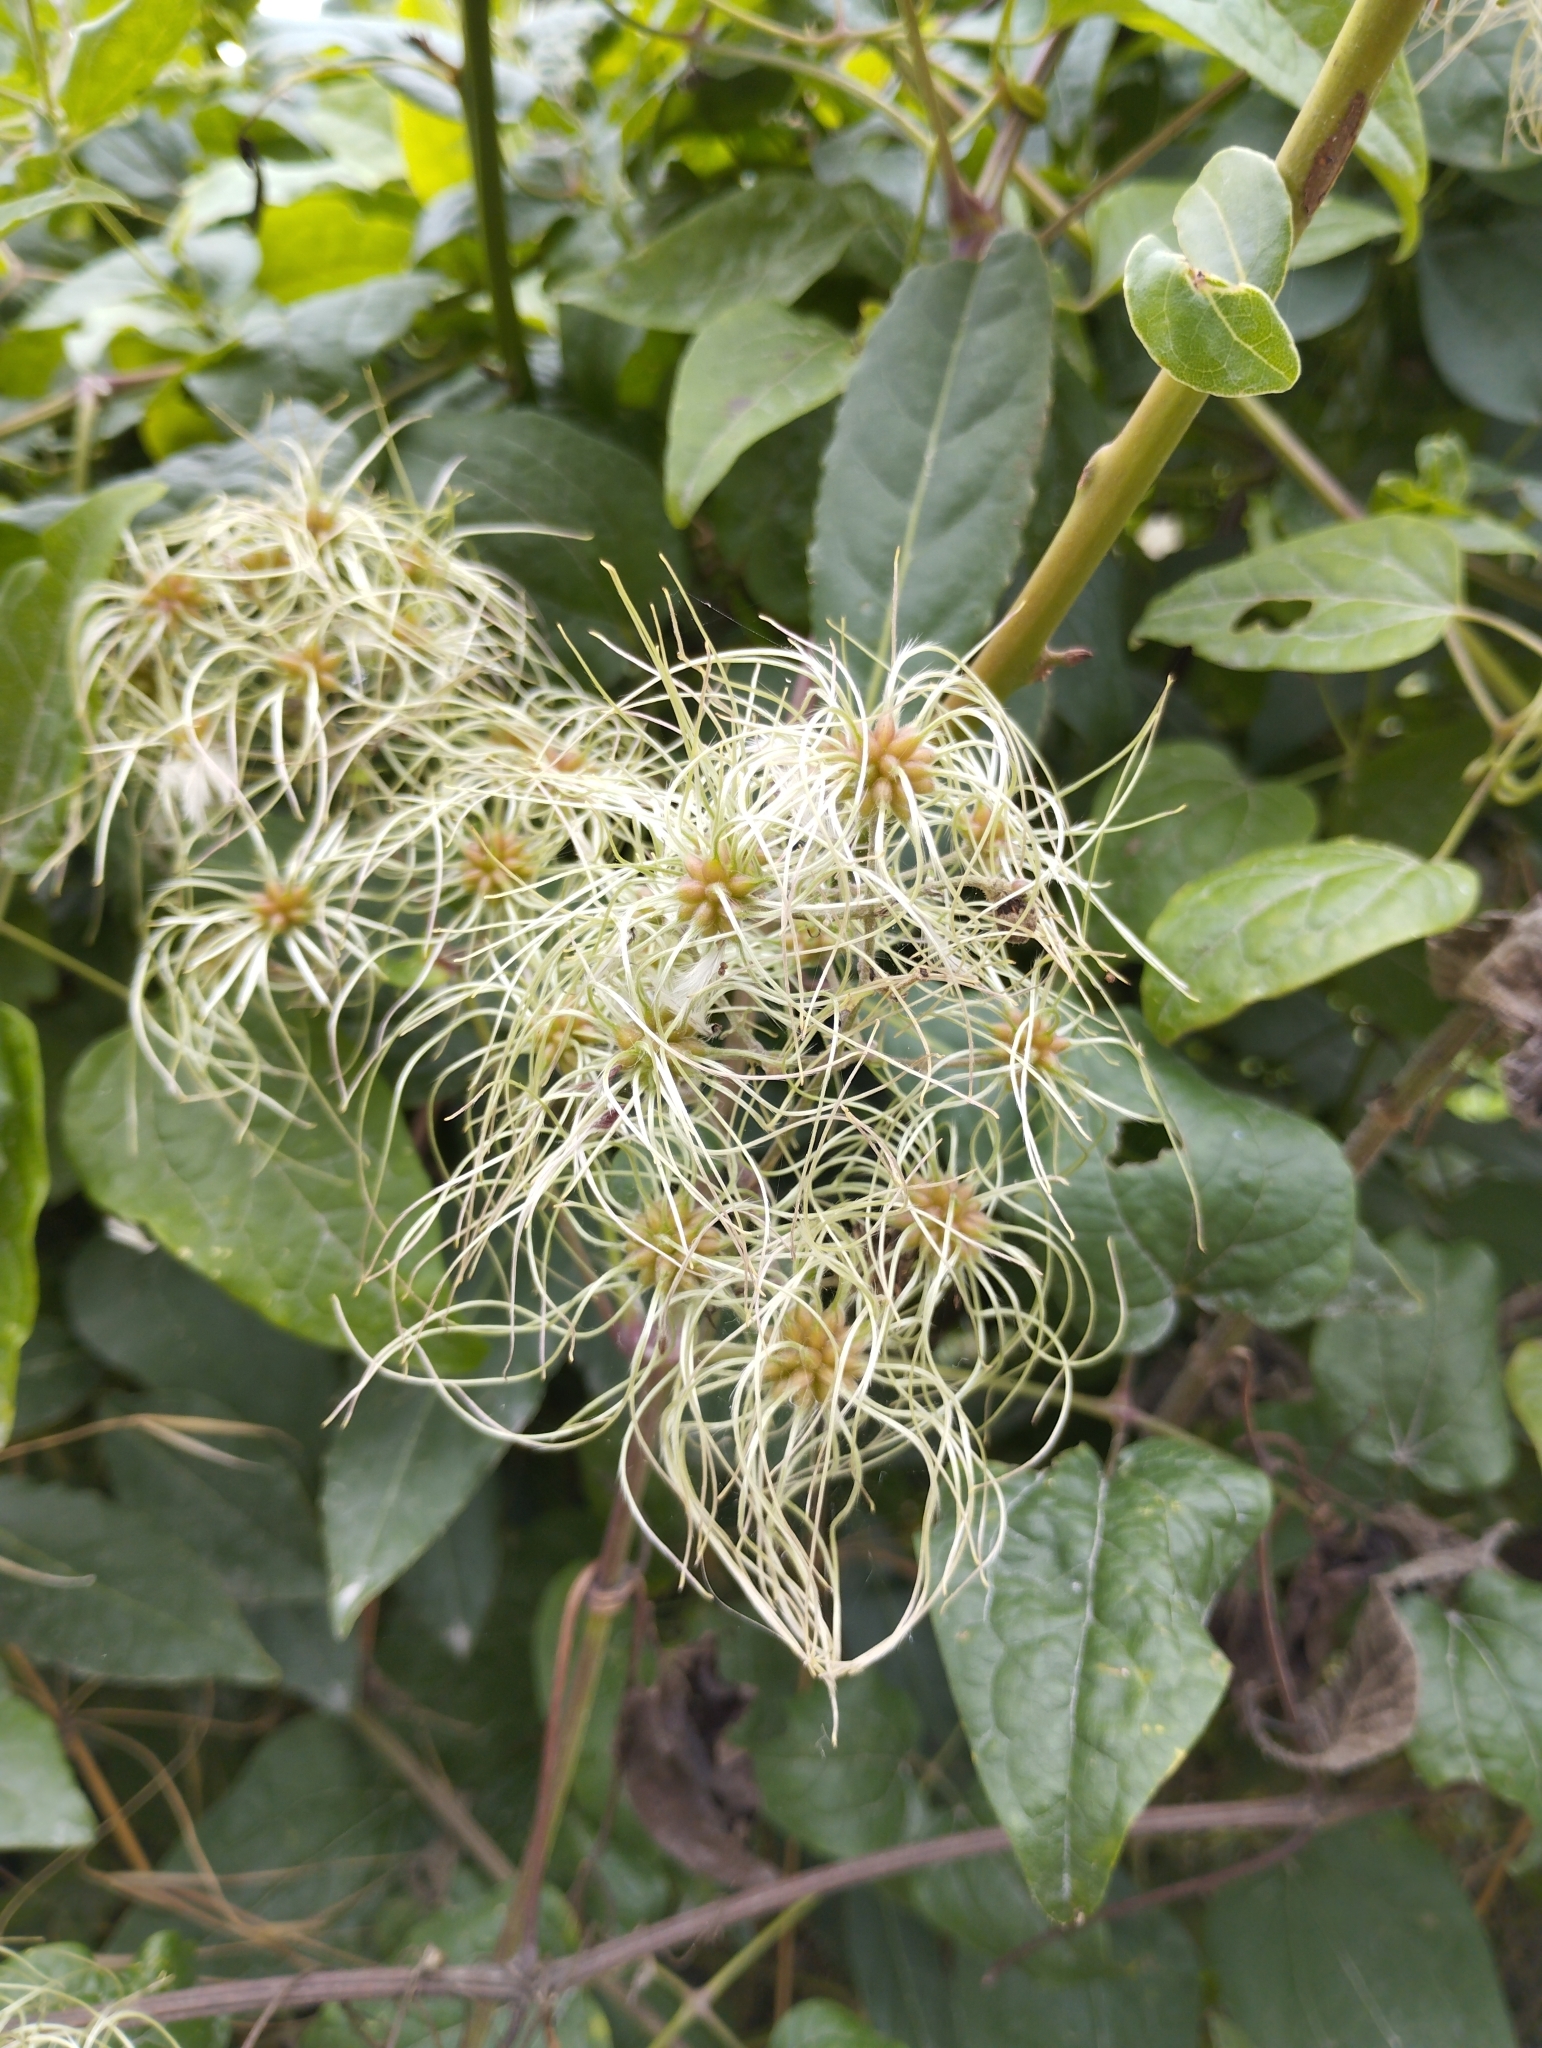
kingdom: Plantae
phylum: Tracheophyta
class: Magnoliopsida
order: Ranunculales
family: Ranunculaceae
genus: Clematis
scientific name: Clematis vitalba
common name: Evergreen clematis
